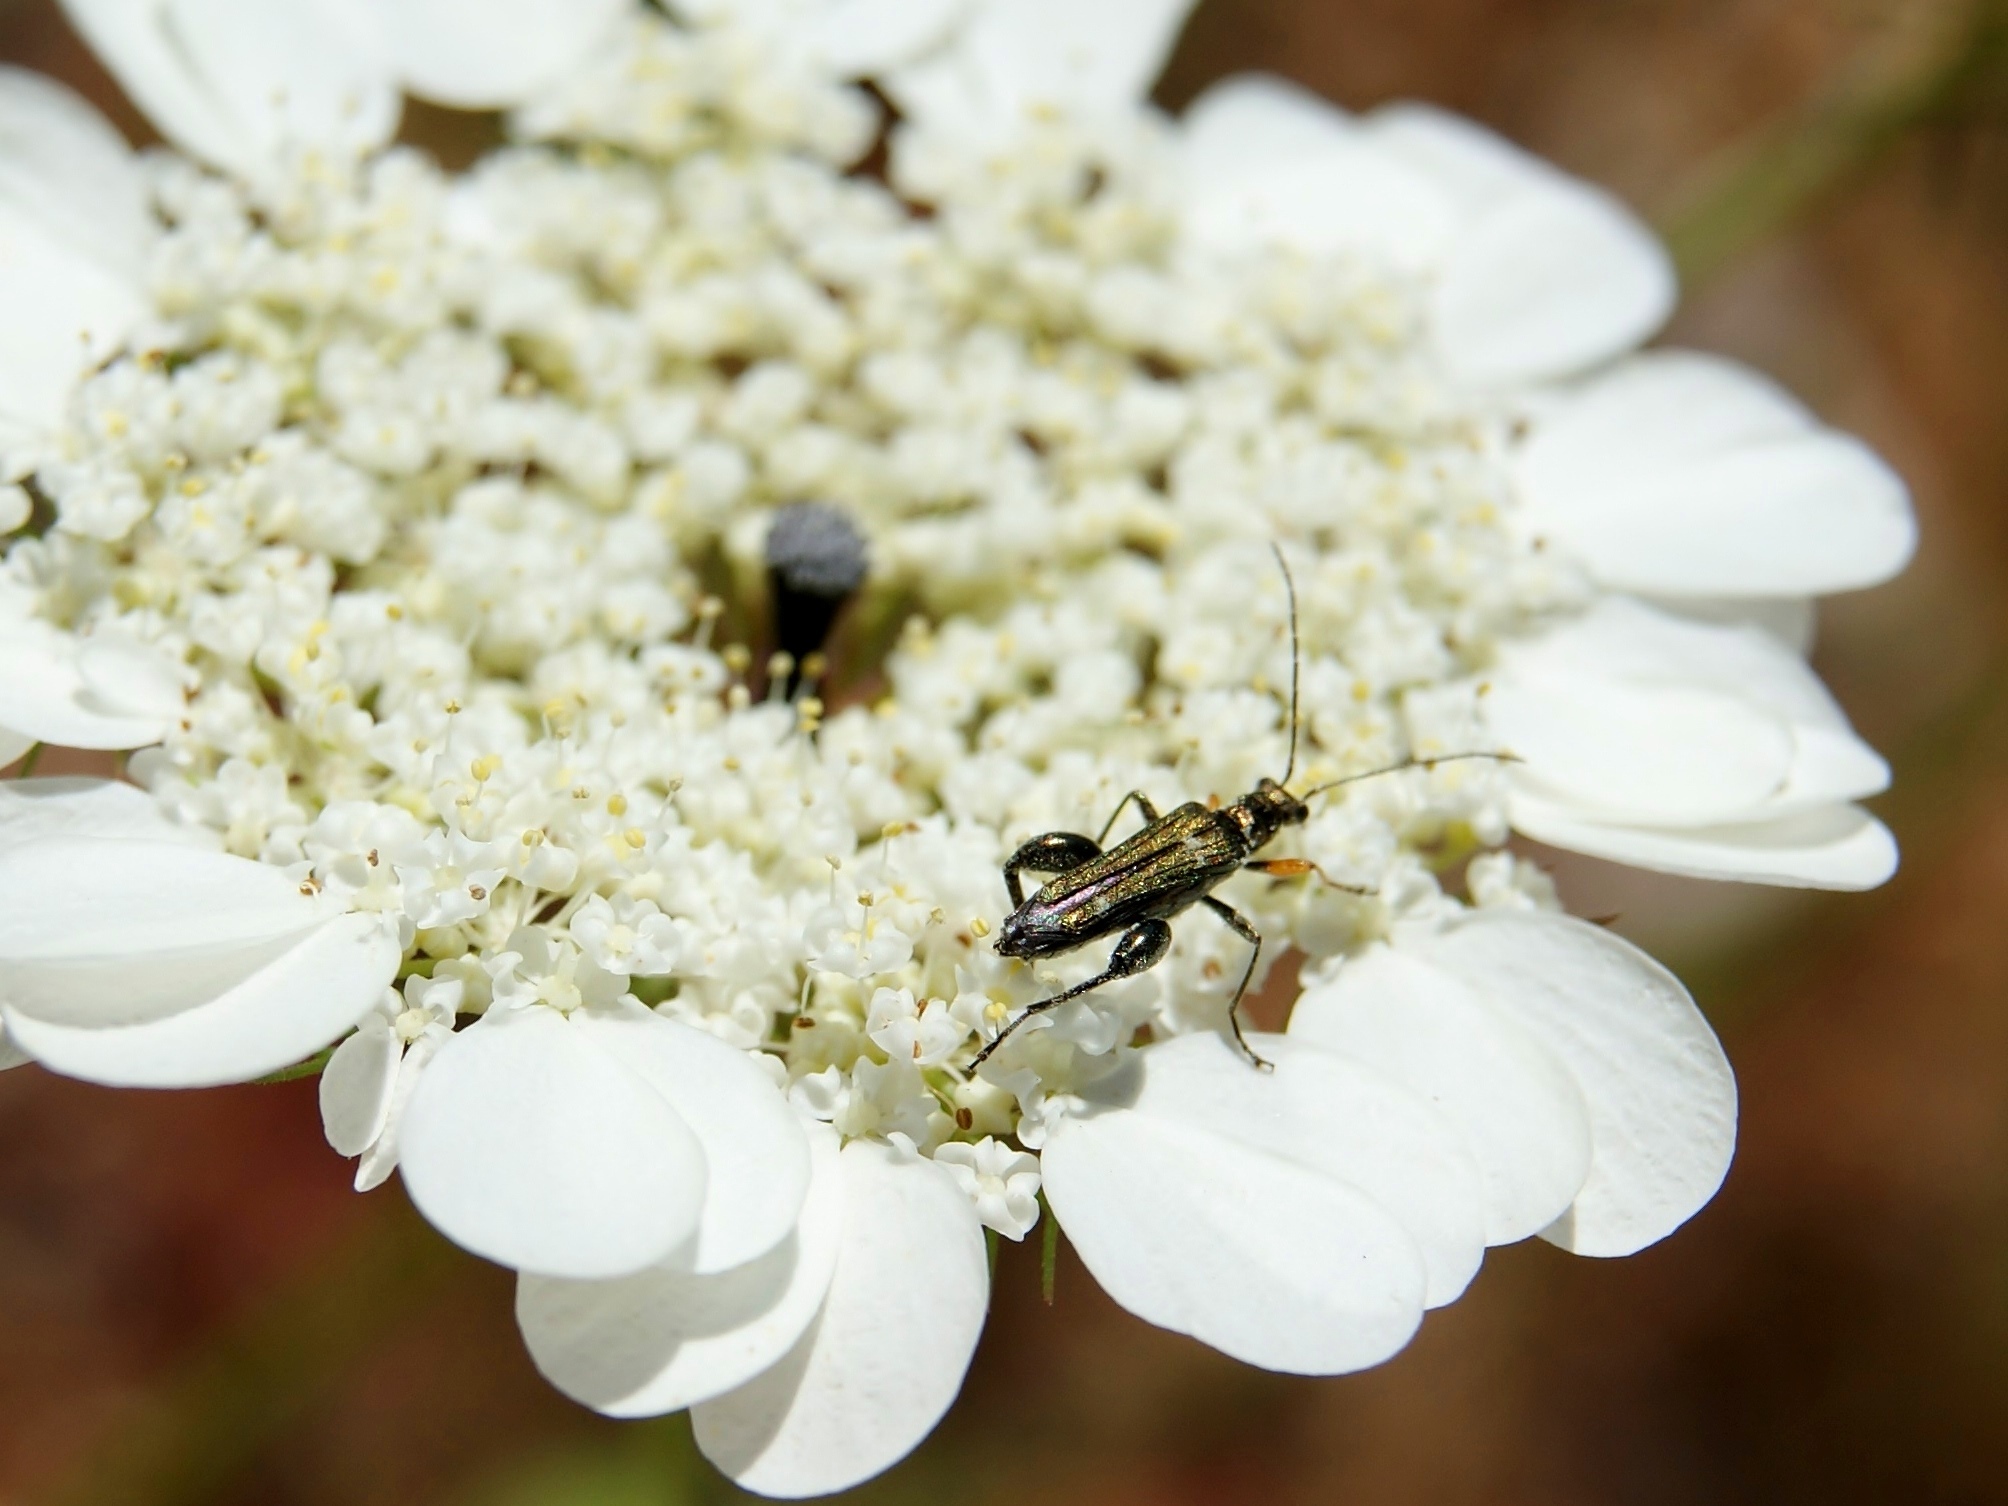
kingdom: Animalia
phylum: Arthropoda
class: Insecta
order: Coleoptera
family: Oedemeridae
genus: Oedemera
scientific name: Oedemera flavipes
